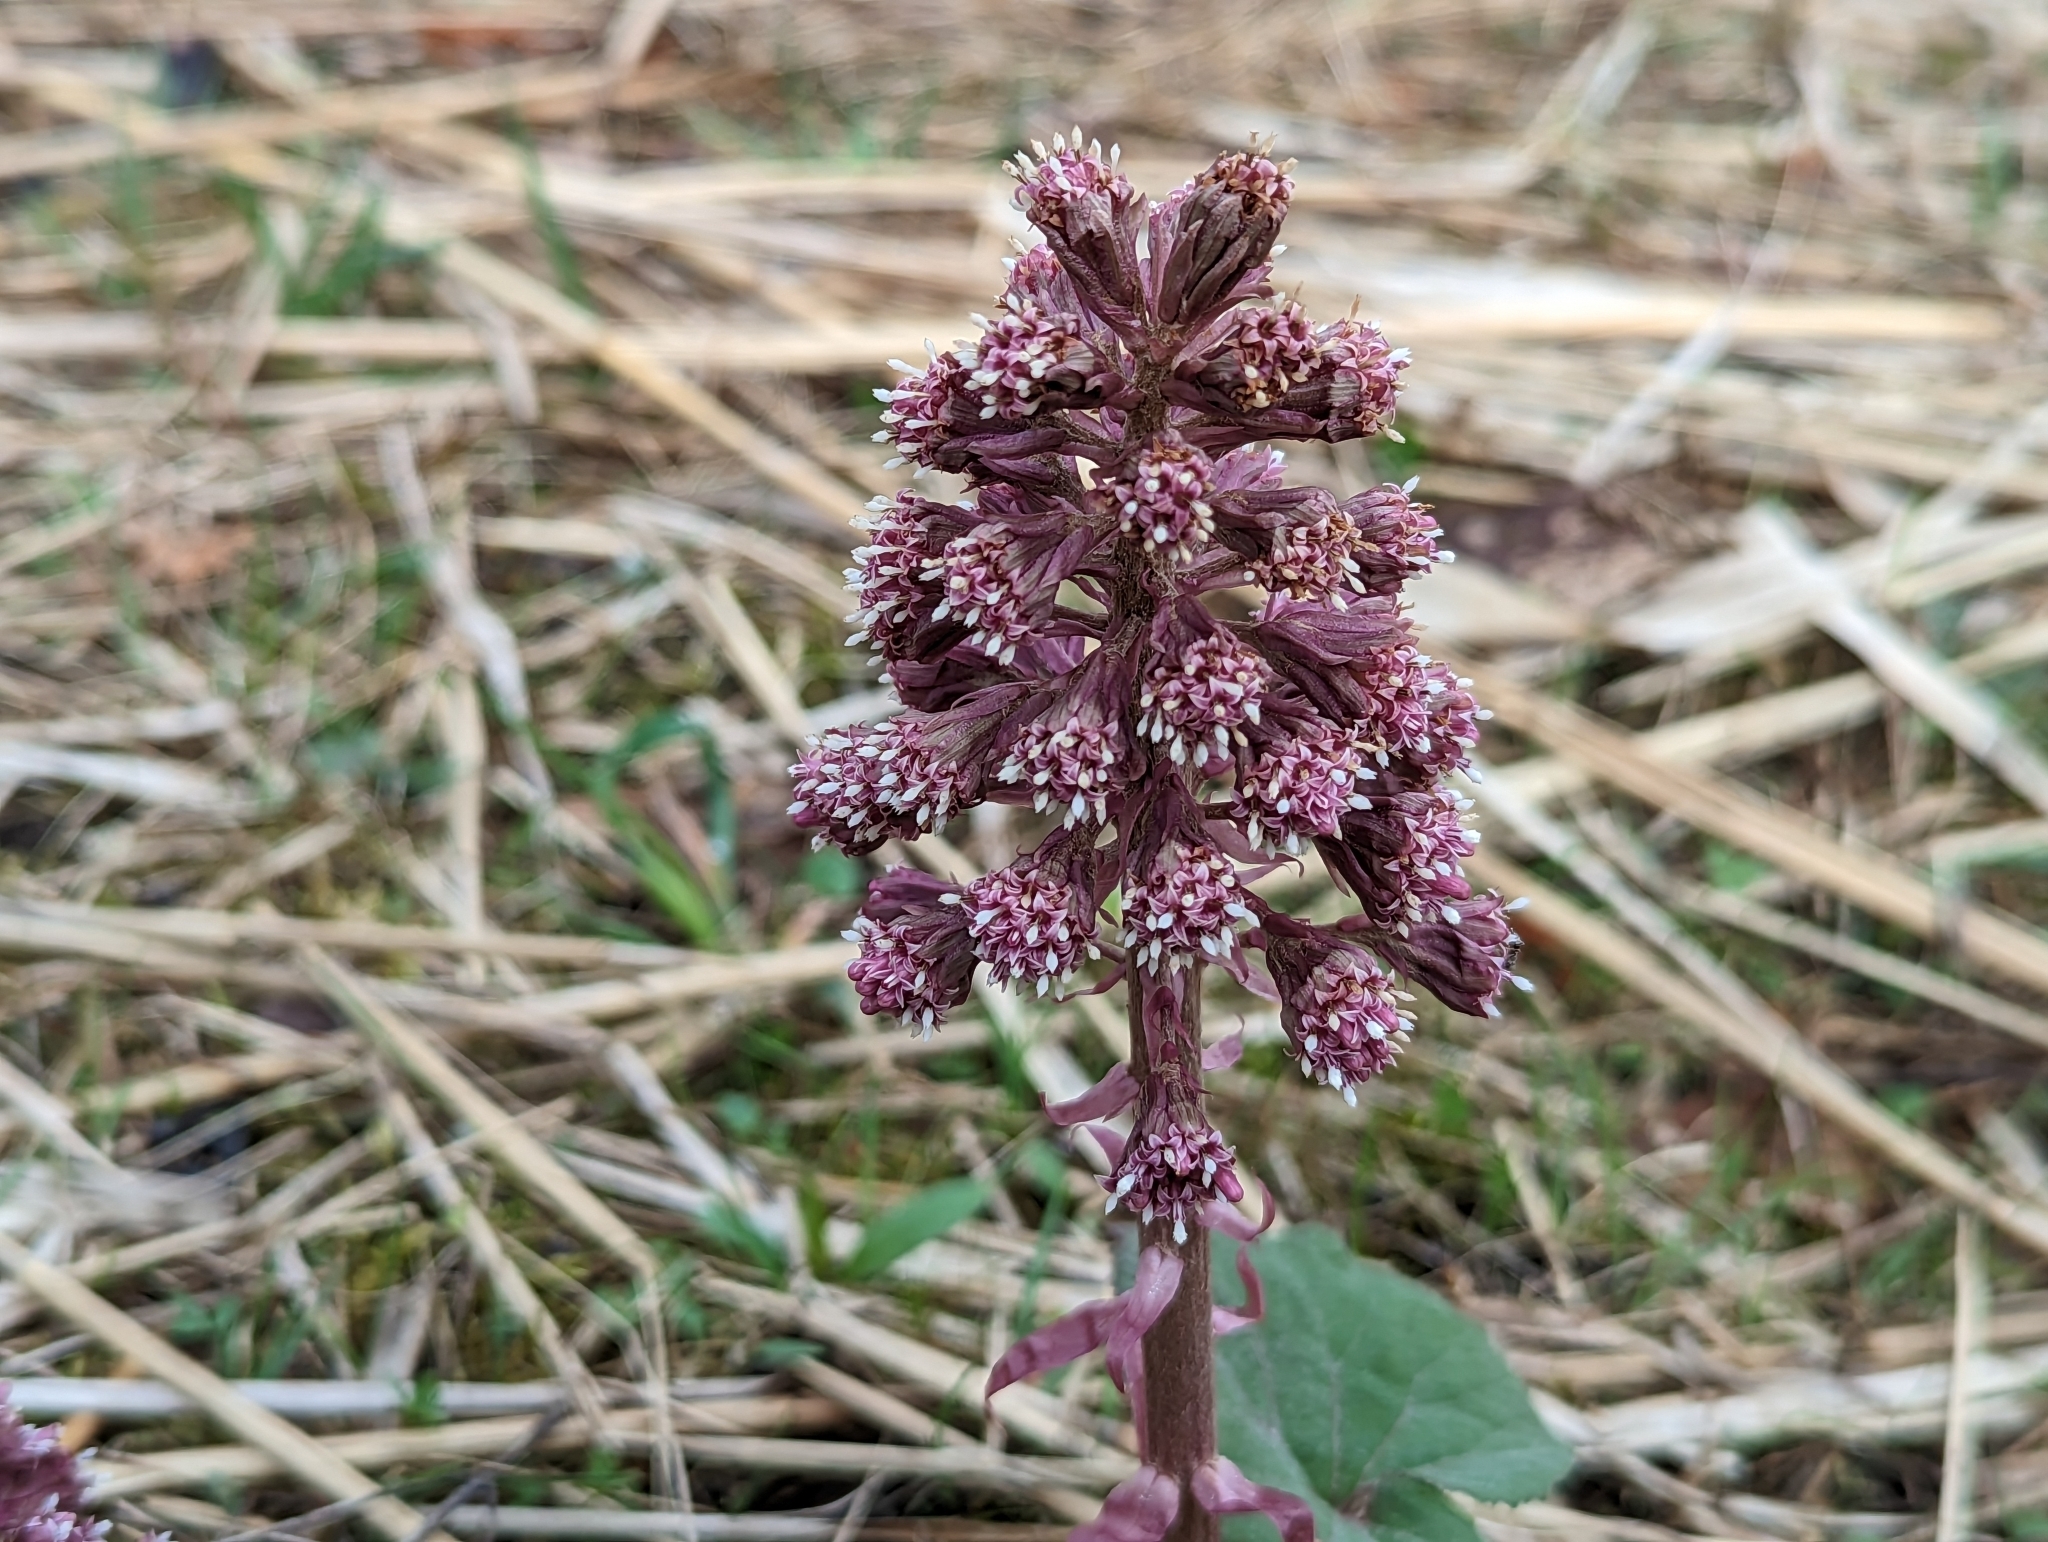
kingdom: Plantae
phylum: Tracheophyta
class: Magnoliopsida
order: Asterales
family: Asteraceae
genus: Petasites
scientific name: Petasites hybridus
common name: Butterbur
